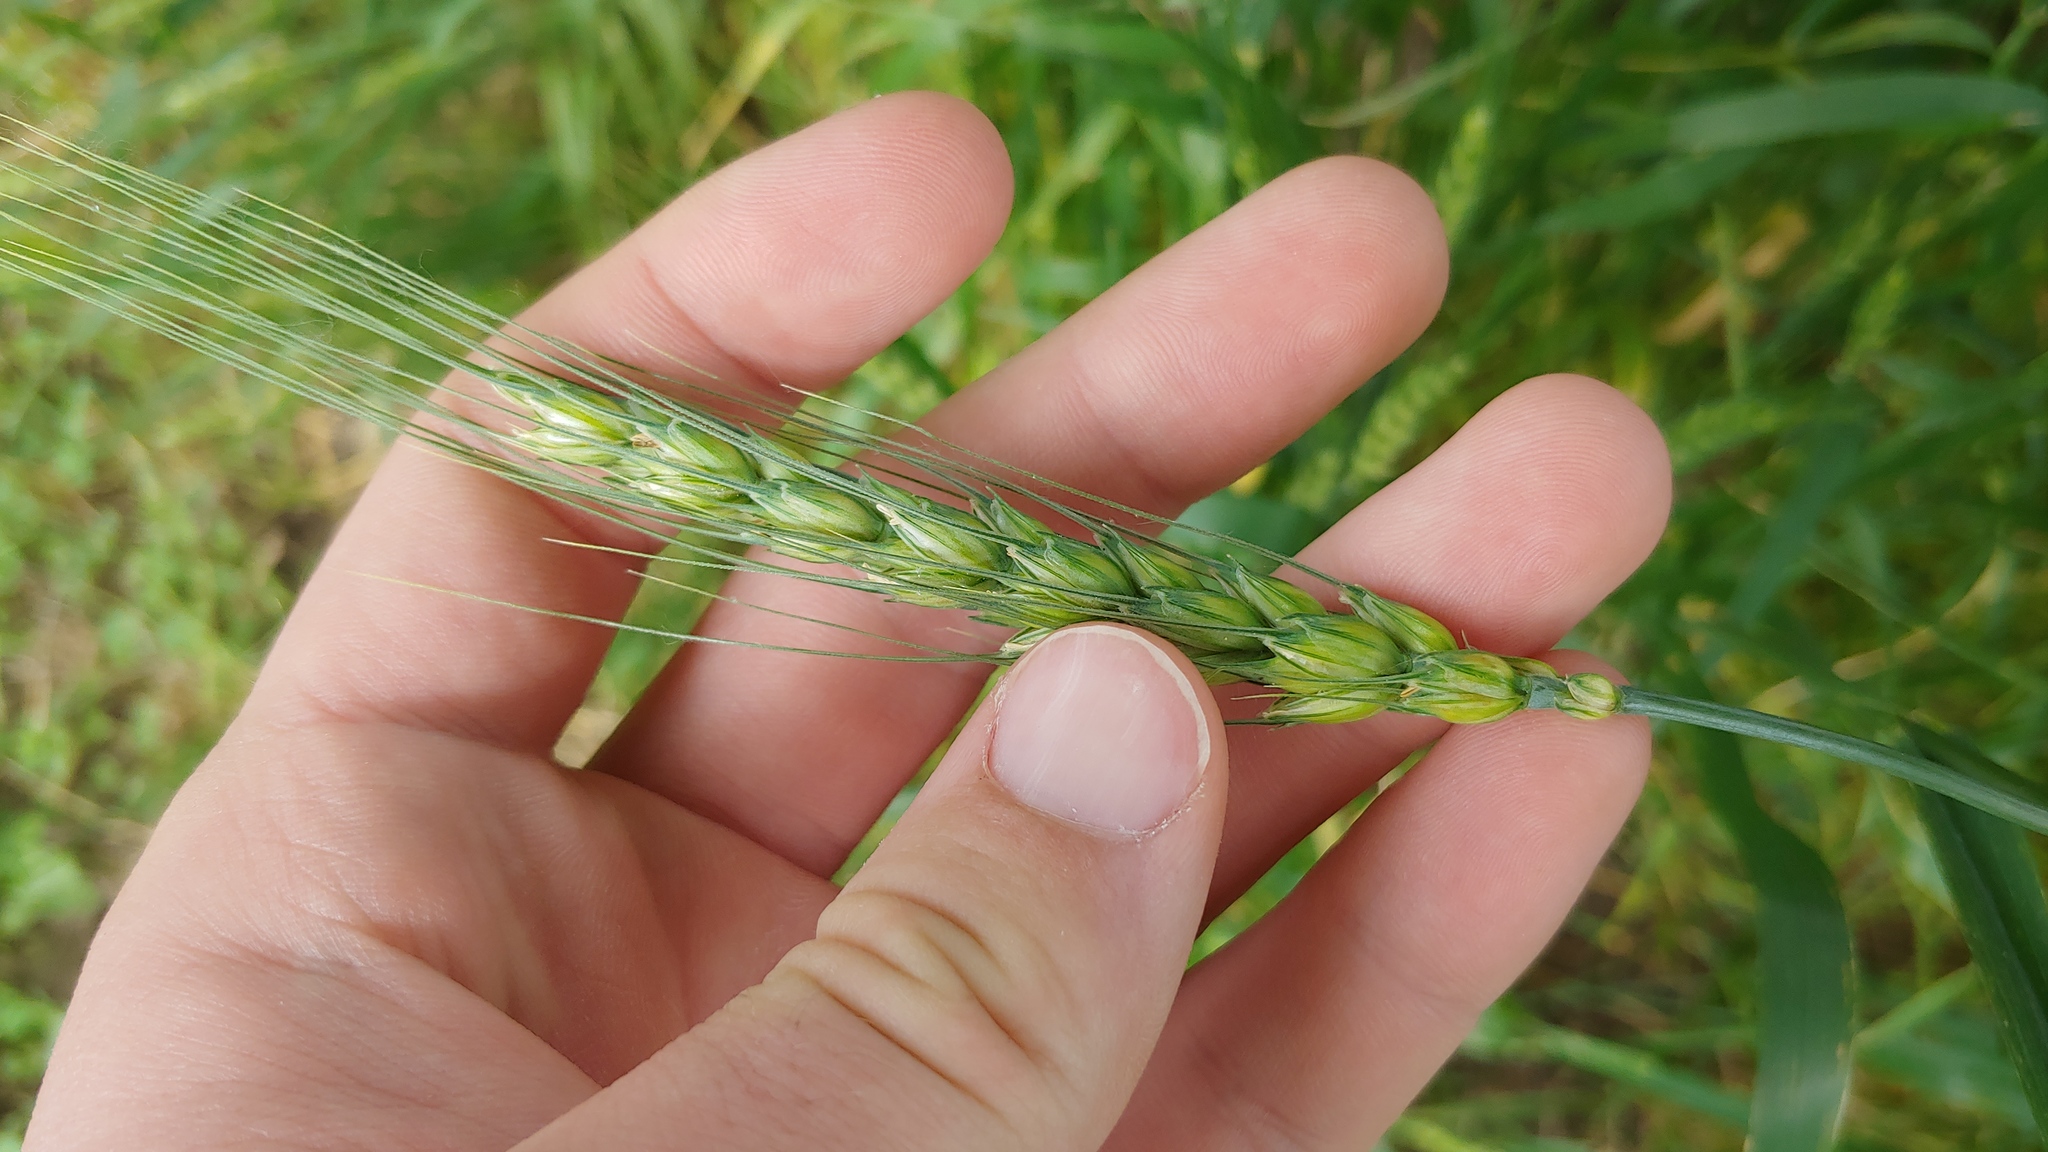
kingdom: Plantae
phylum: Tracheophyta
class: Liliopsida
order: Poales
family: Poaceae
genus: Triticum
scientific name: Triticum aestivum
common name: Common wheat
